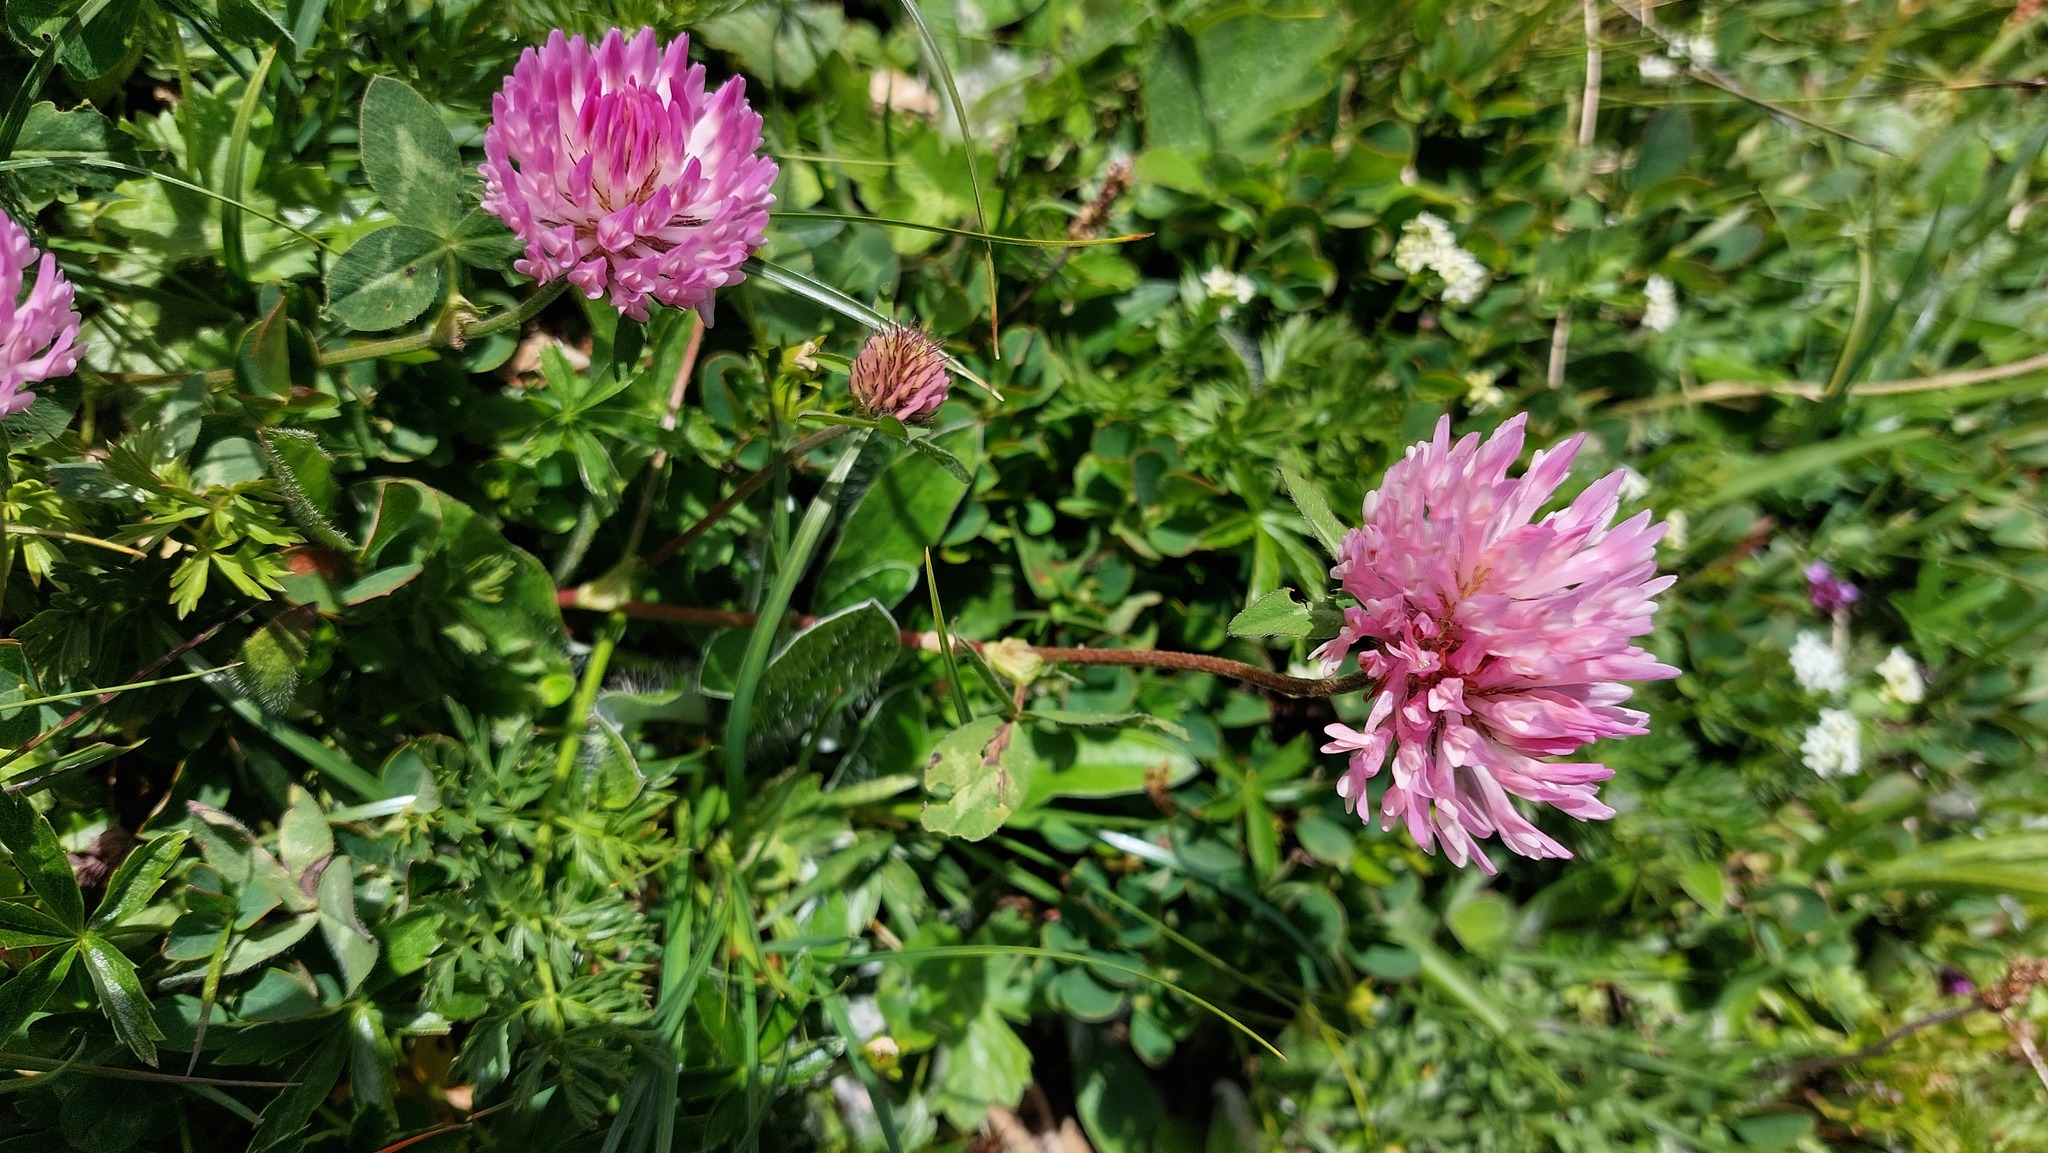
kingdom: Plantae
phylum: Tracheophyta
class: Magnoliopsida
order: Fabales
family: Fabaceae
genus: Trifolium
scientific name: Trifolium pratense
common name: Red clover
